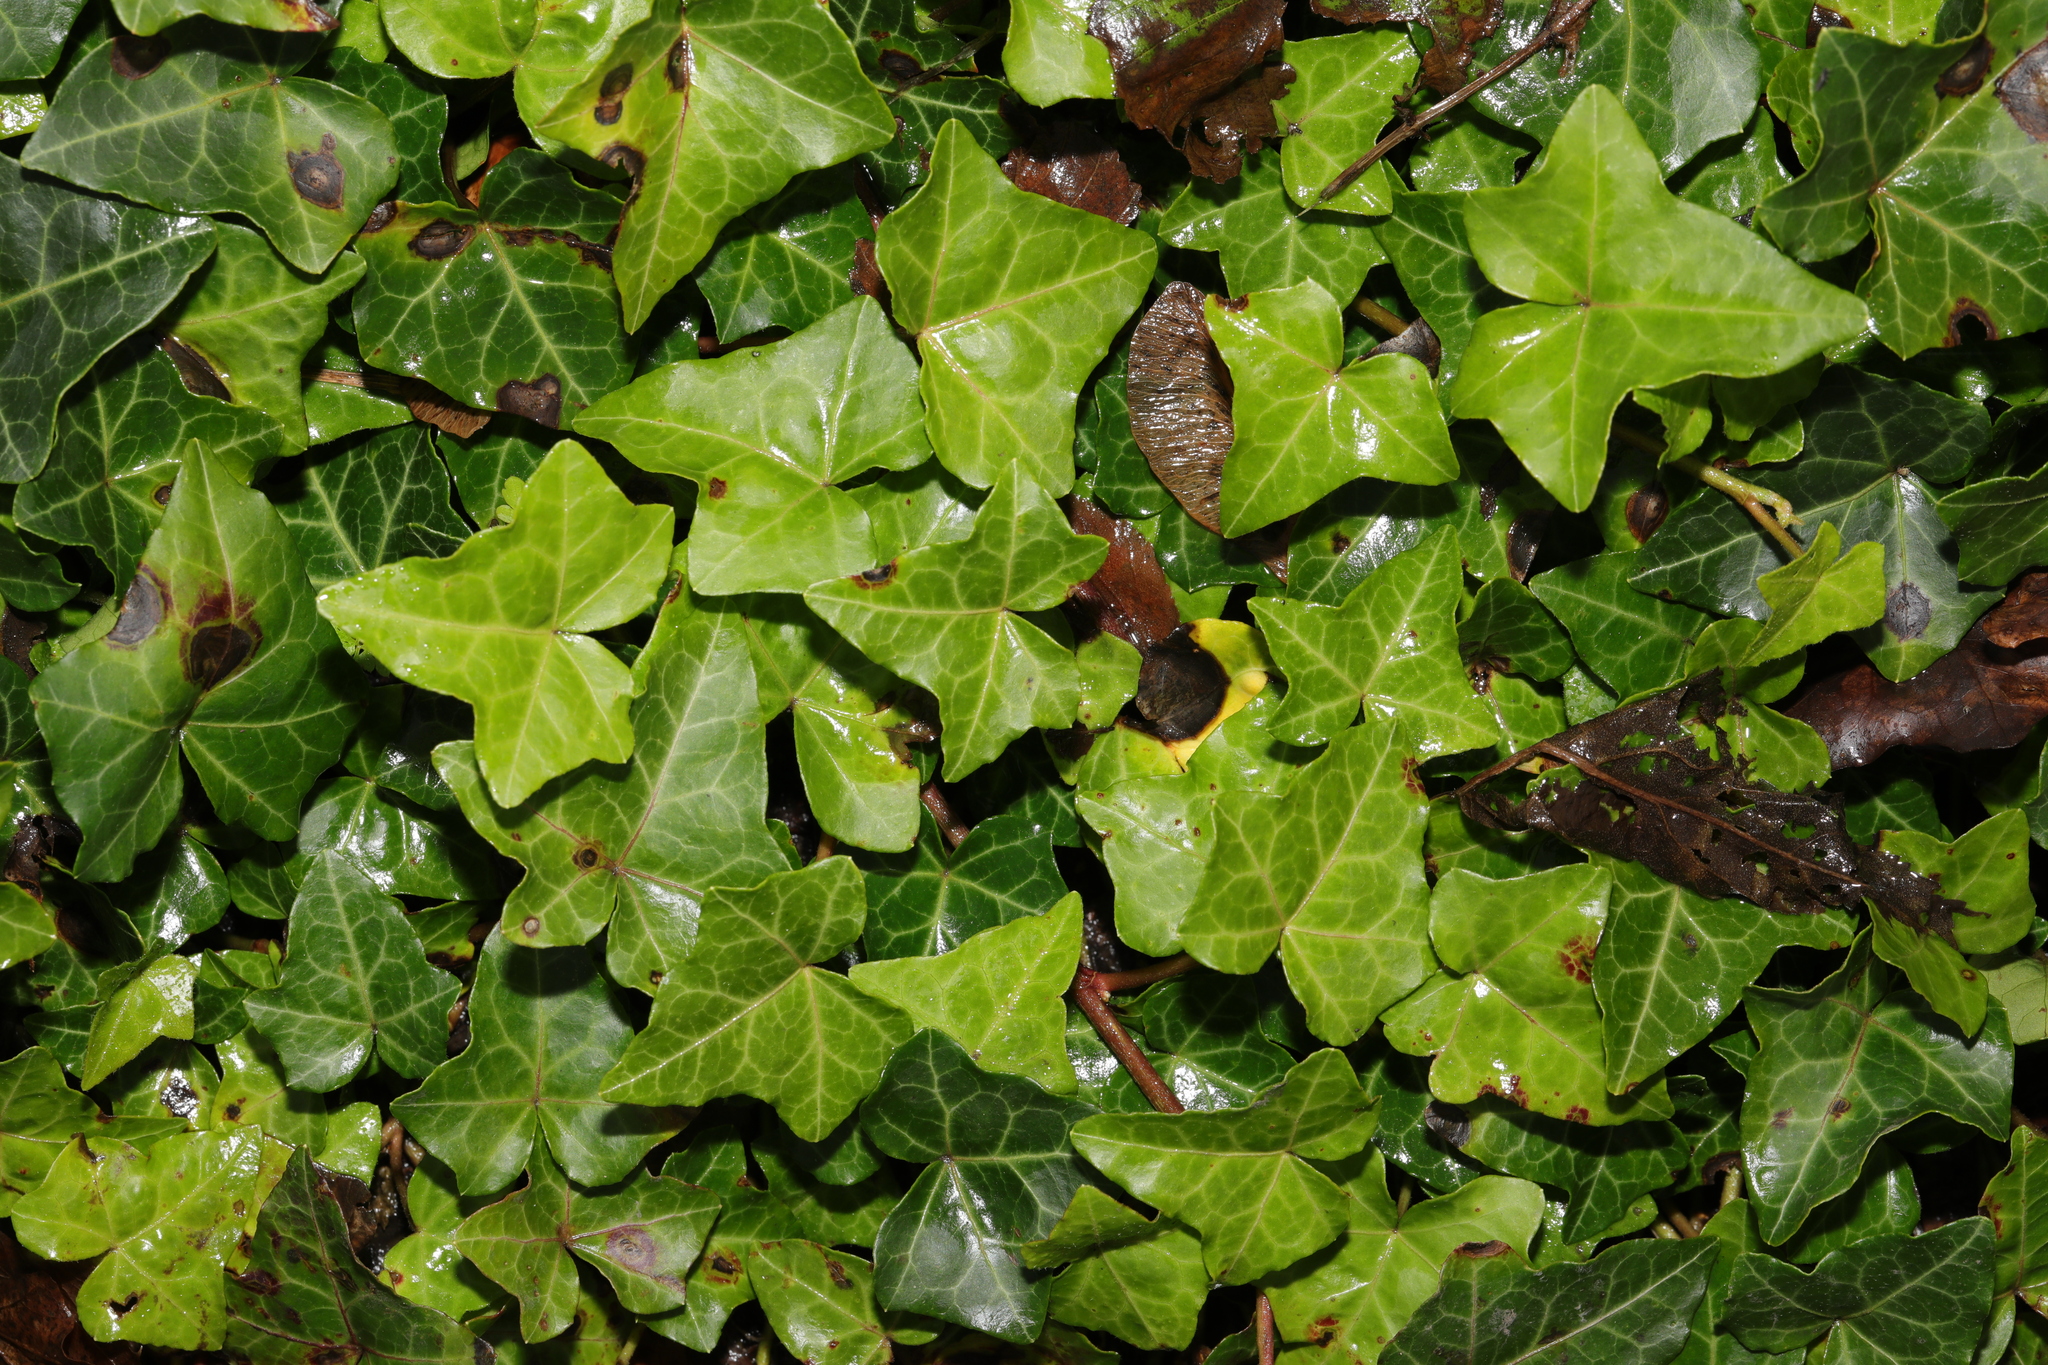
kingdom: Plantae
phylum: Tracheophyta
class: Magnoliopsida
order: Apiales
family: Araliaceae
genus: Hedera
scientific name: Hedera helix
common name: Ivy
